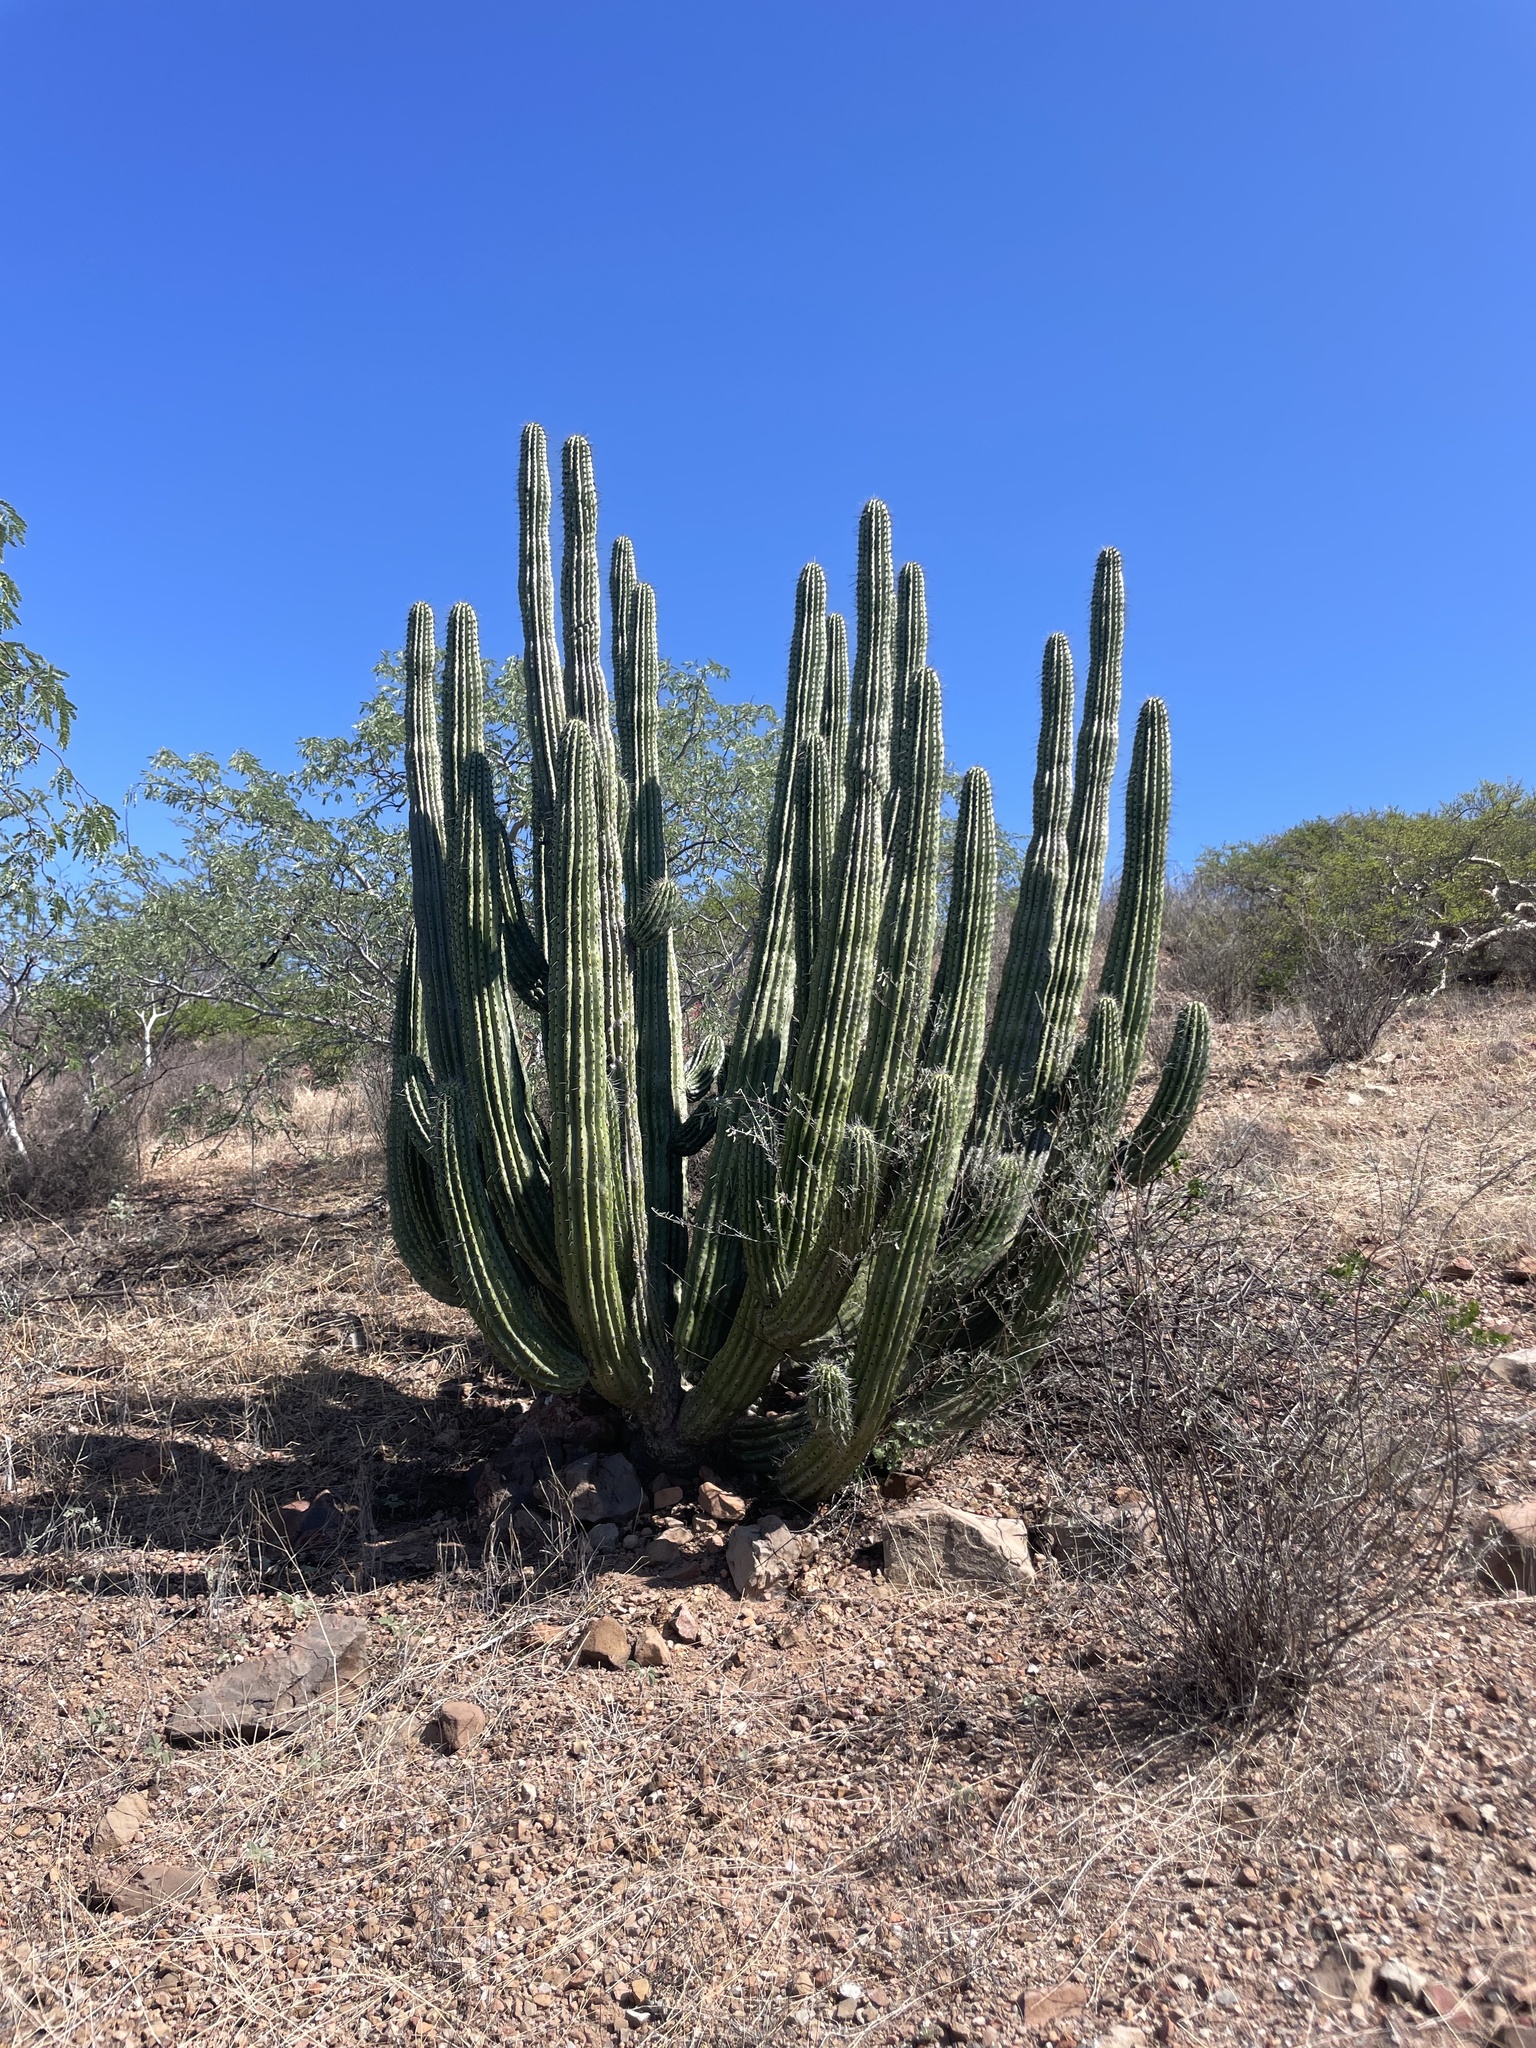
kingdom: Plantae
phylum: Tracheophyta
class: Magnoliopsida
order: Caryophyllales
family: Cactaceae
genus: Stenocereus
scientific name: Stenocereus thurberi
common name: Organ pipe cactus
